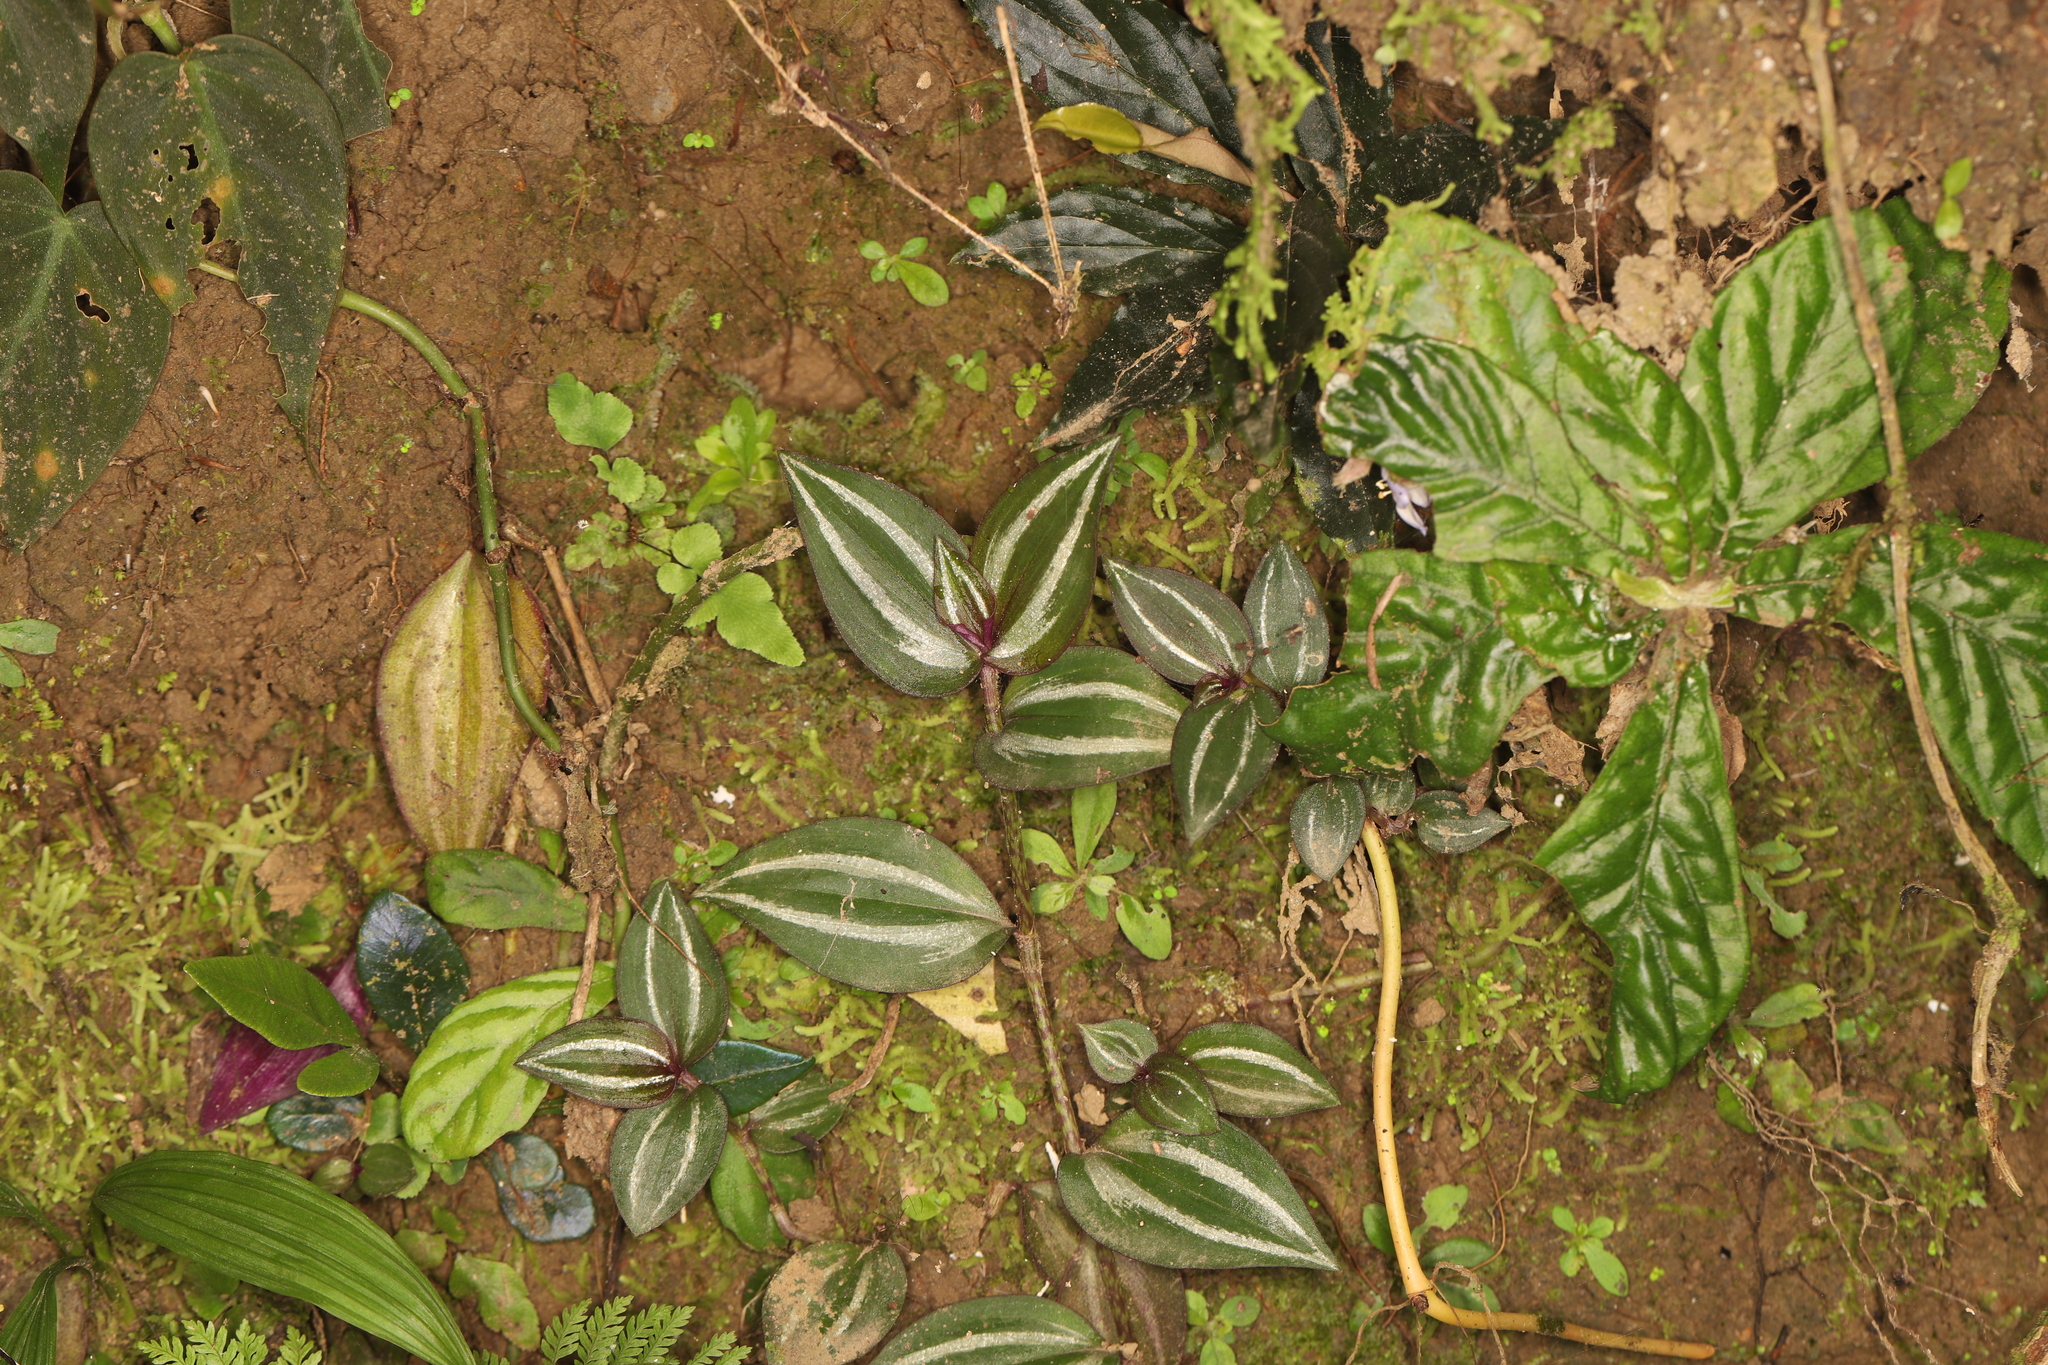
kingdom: Plantae
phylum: Tracheophyta
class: Liliopsida
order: Commelinales
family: Commelinaceae
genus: Tradescantia
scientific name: Tradescantia zebrina
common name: Inchplant
